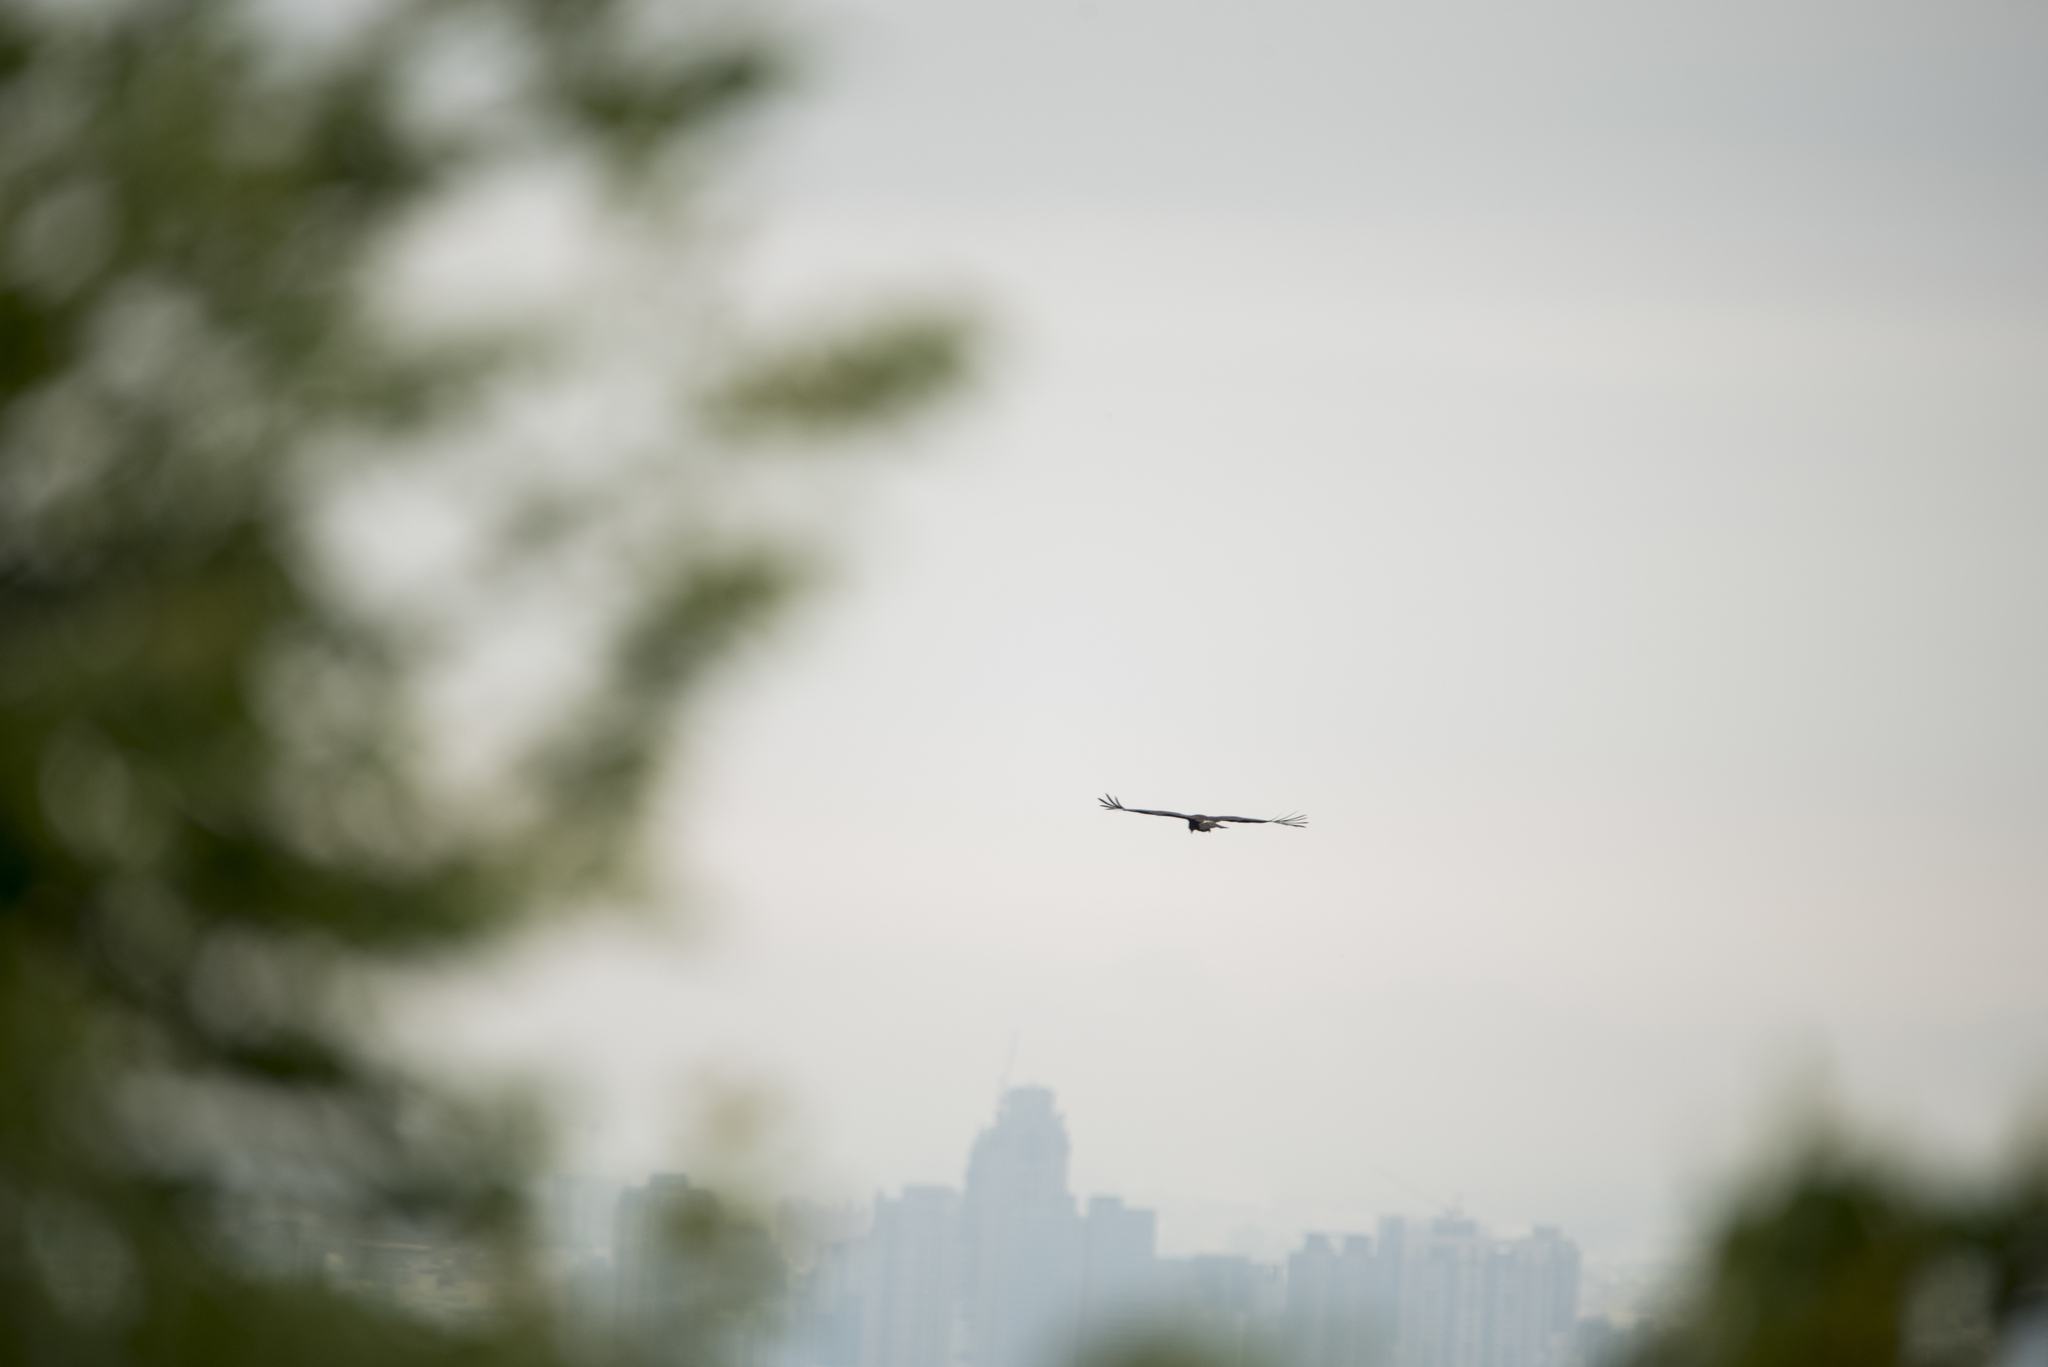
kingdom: Animalia
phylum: Chordata
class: Aves
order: Accipitriformes
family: Accipitridae
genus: Ictinaetus
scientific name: Ictinaetus malayensis
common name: Black eagle
